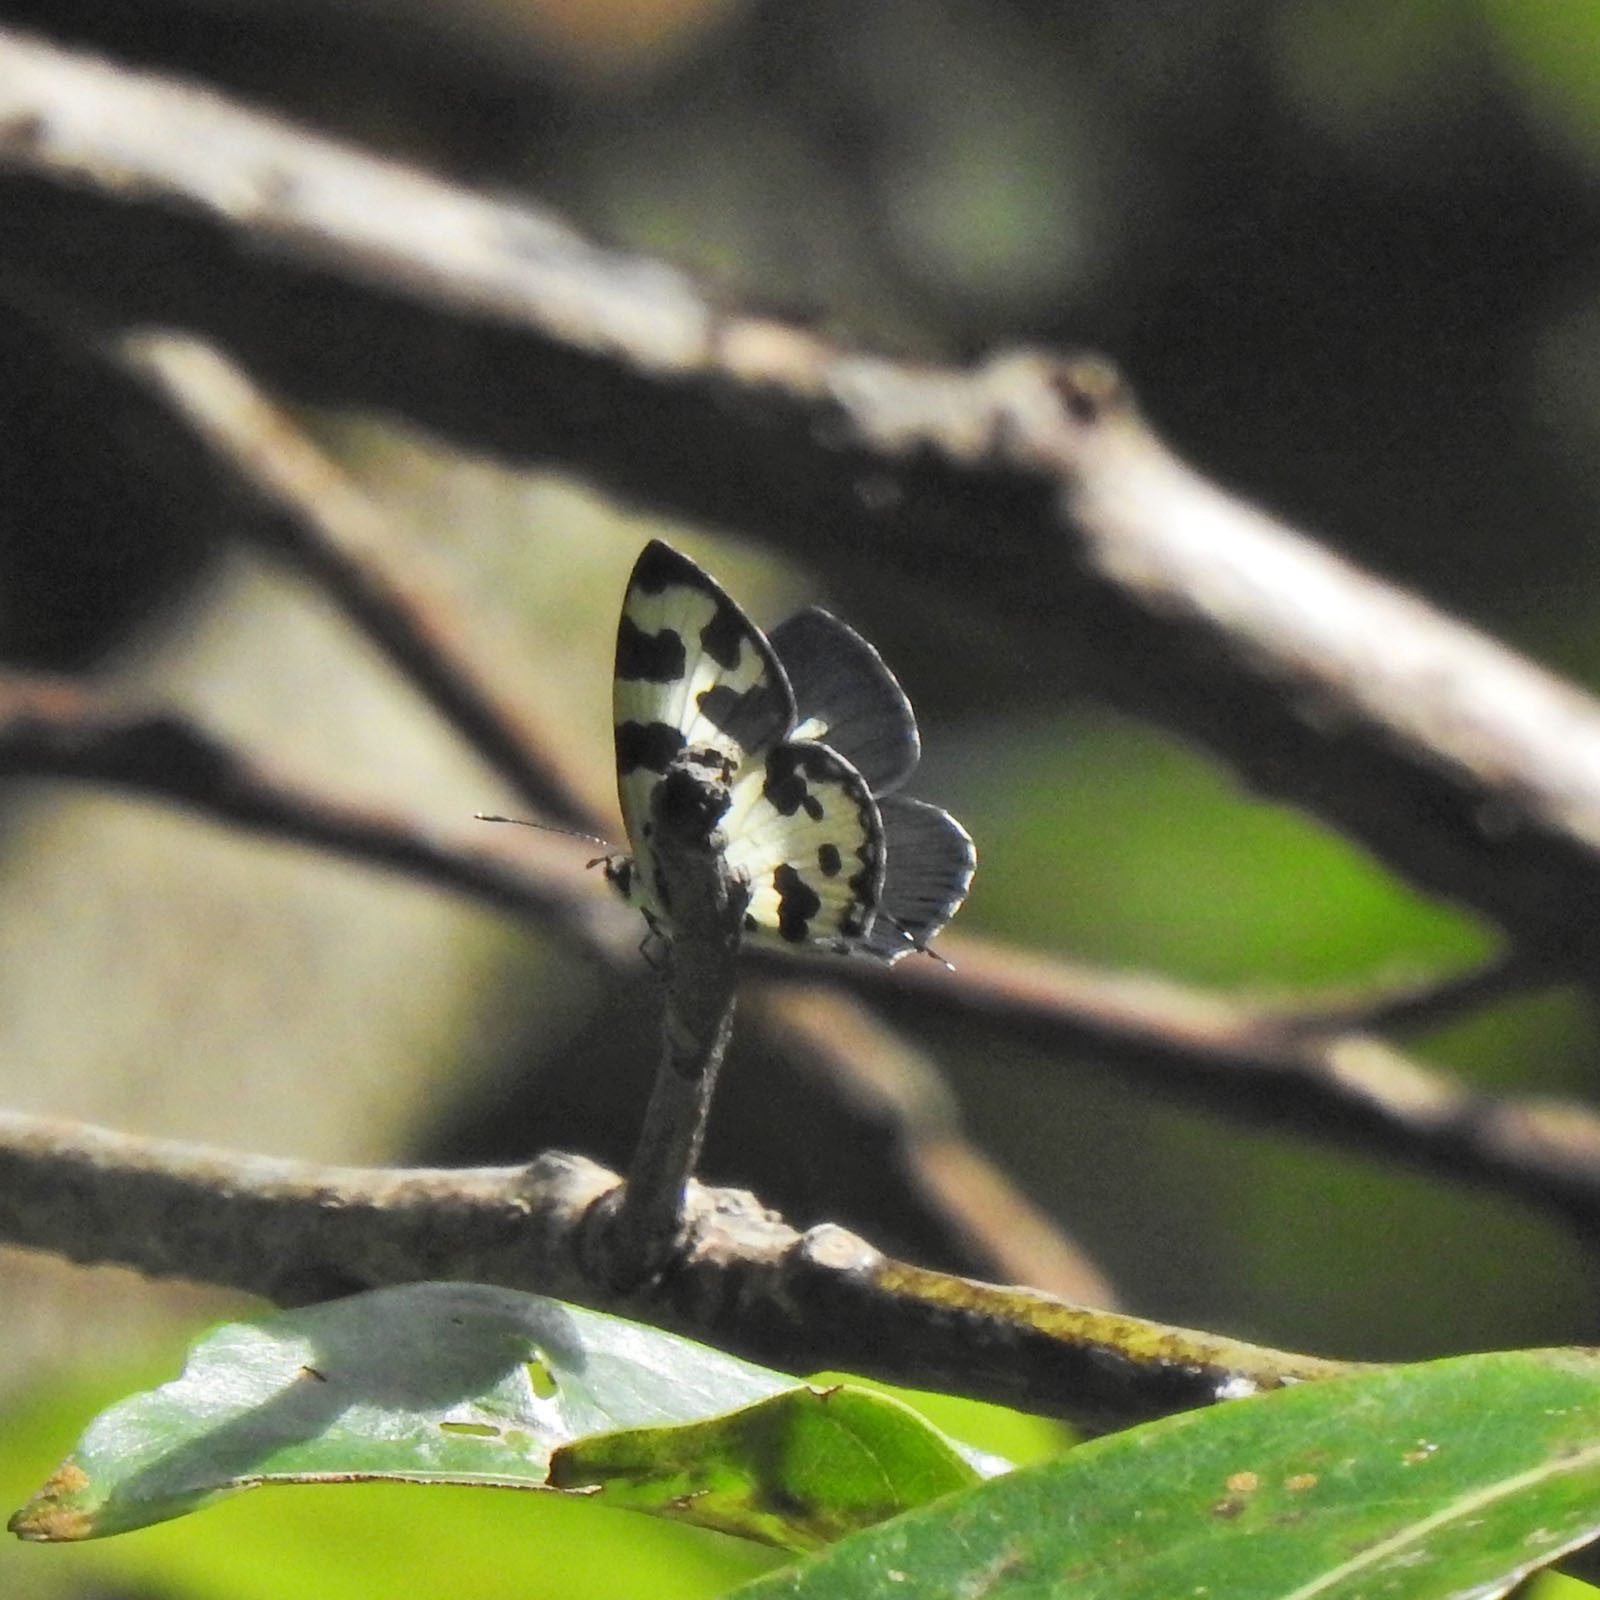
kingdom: Animalia
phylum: Arthropoda
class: Insecta
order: Lepidoptera
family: Lycaenidae
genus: Caleta
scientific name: Caleta decidia
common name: Angled pierrot
